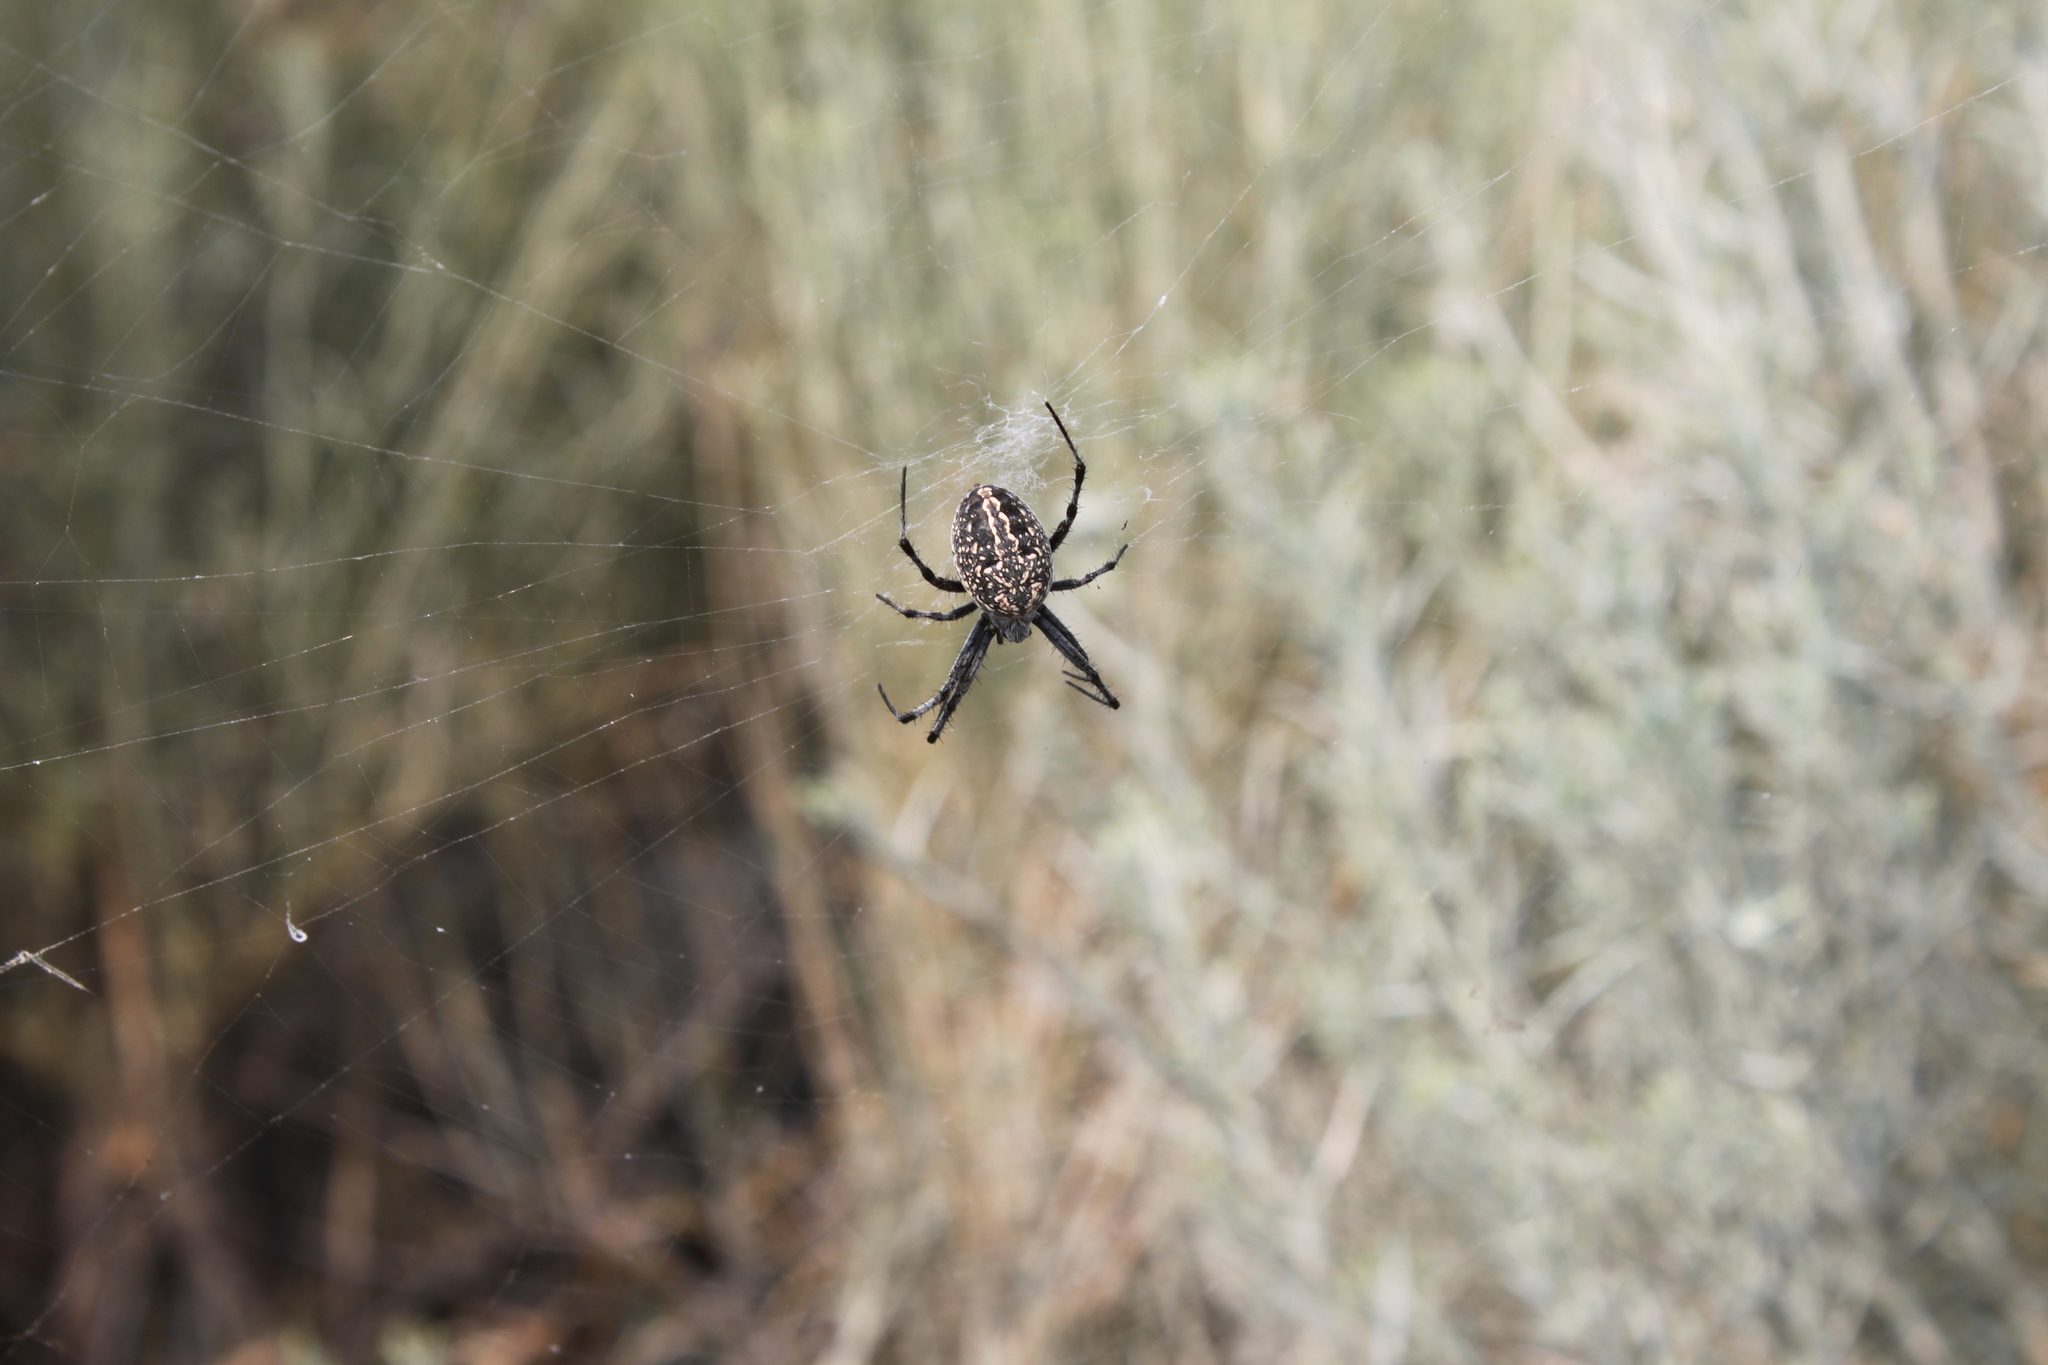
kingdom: Animalia
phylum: Arthropoda
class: Arachnida
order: Araneae
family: Araneidae
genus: Neoscona
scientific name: Neoscona oaxacensis
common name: Orb weavers
